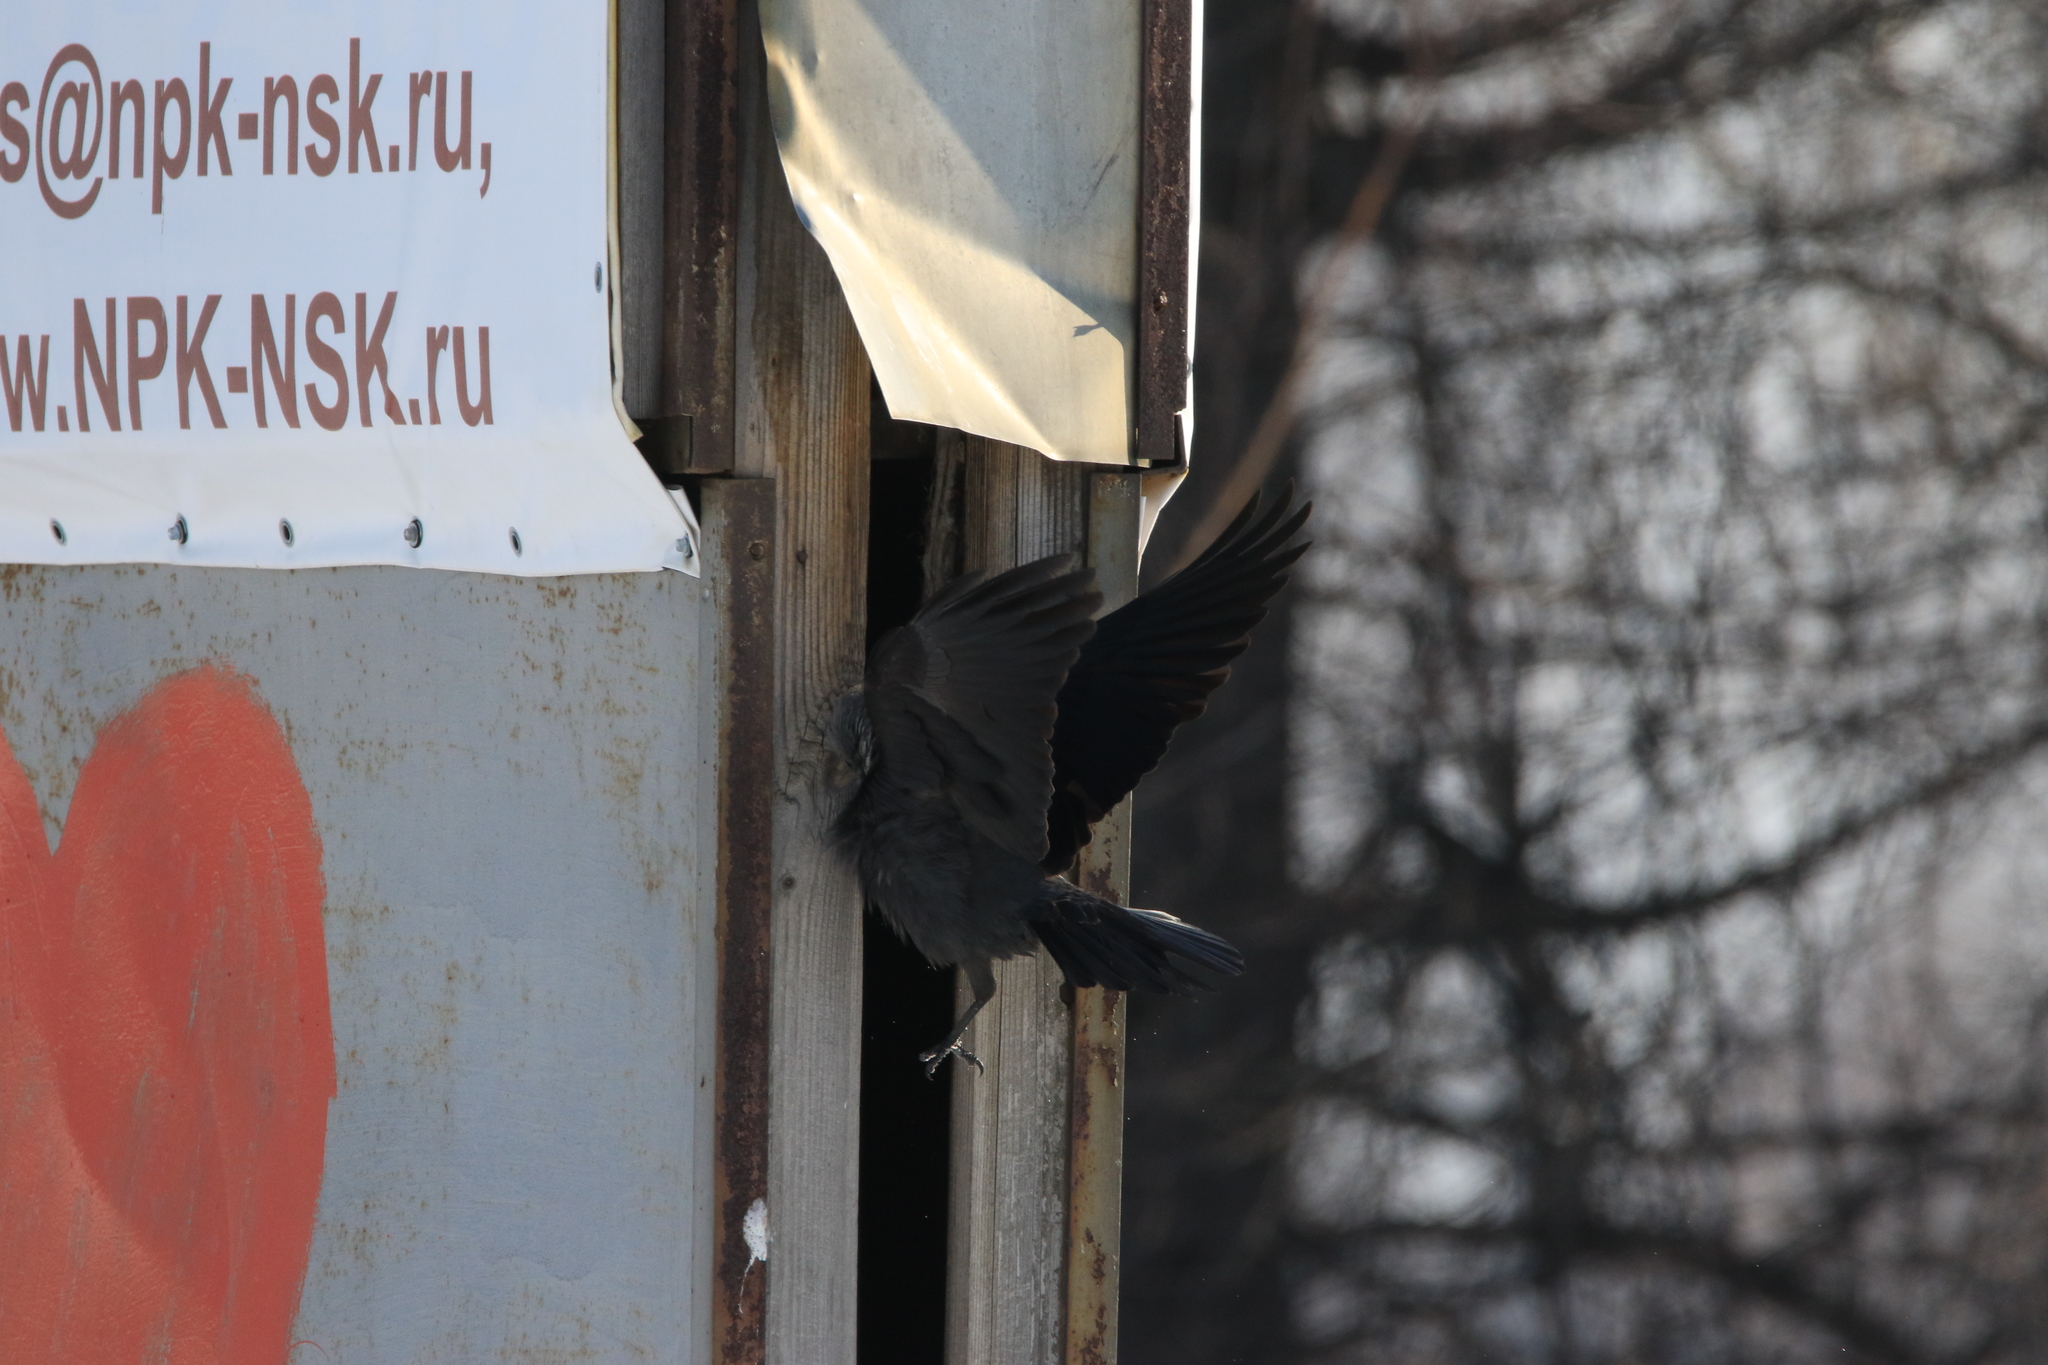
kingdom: Animalia
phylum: Chordata
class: Aves
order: Passeriformes
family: Corvidae
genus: Coloeus
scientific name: Coloeus monedula
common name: Western jackdaw
